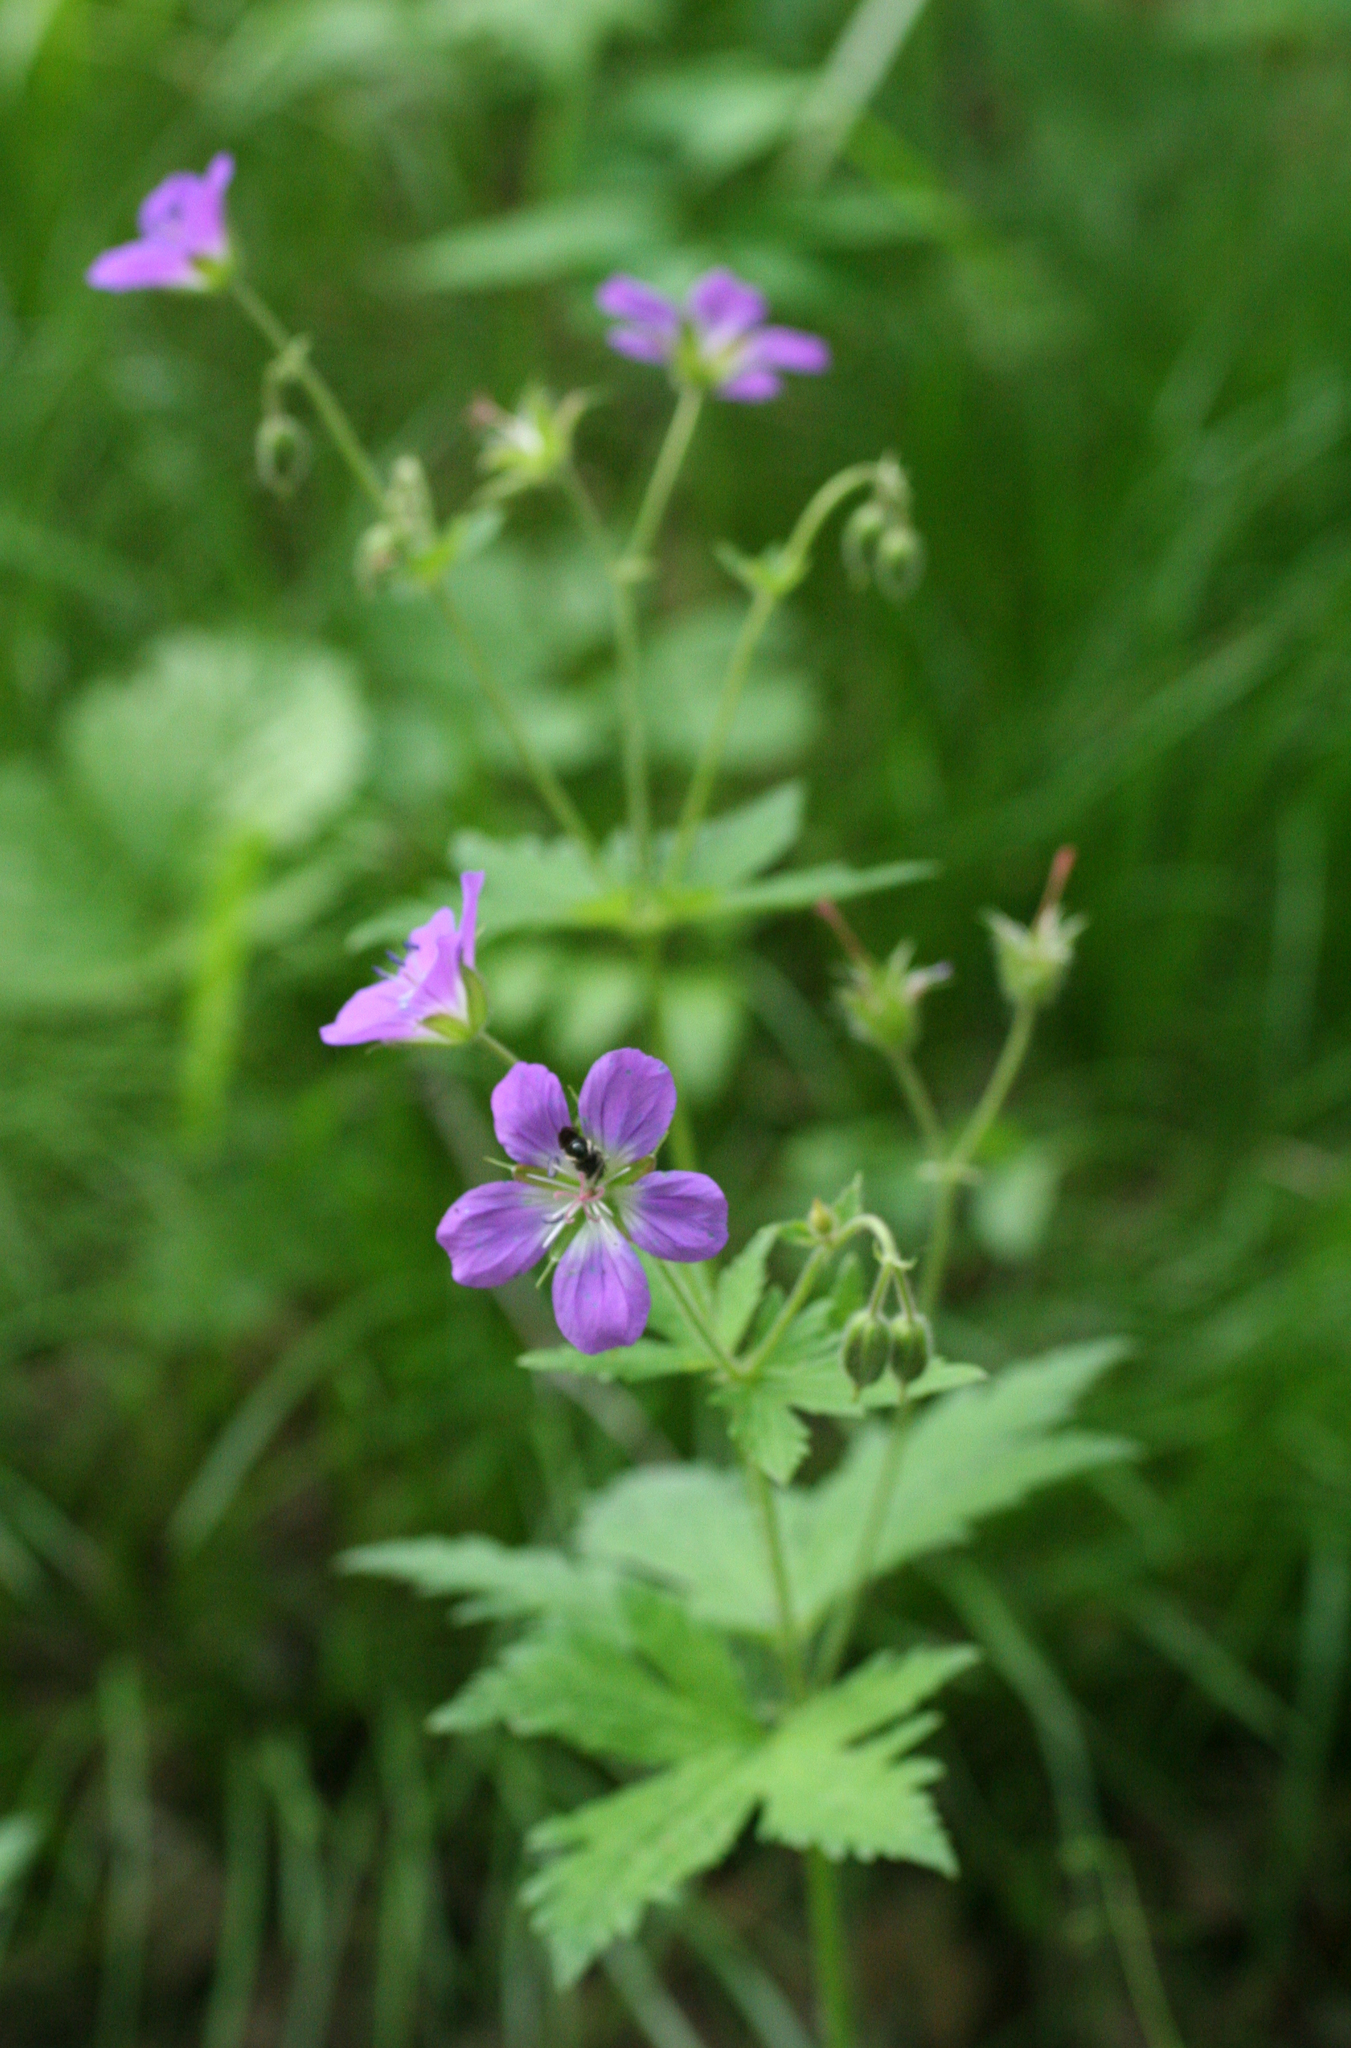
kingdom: Plantae
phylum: Tracheophyta
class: Magnoliopsida
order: Geraniales
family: Geraniaceae
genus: Geranium
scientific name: Geranium sylvaticum
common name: Wood crane's-bill
